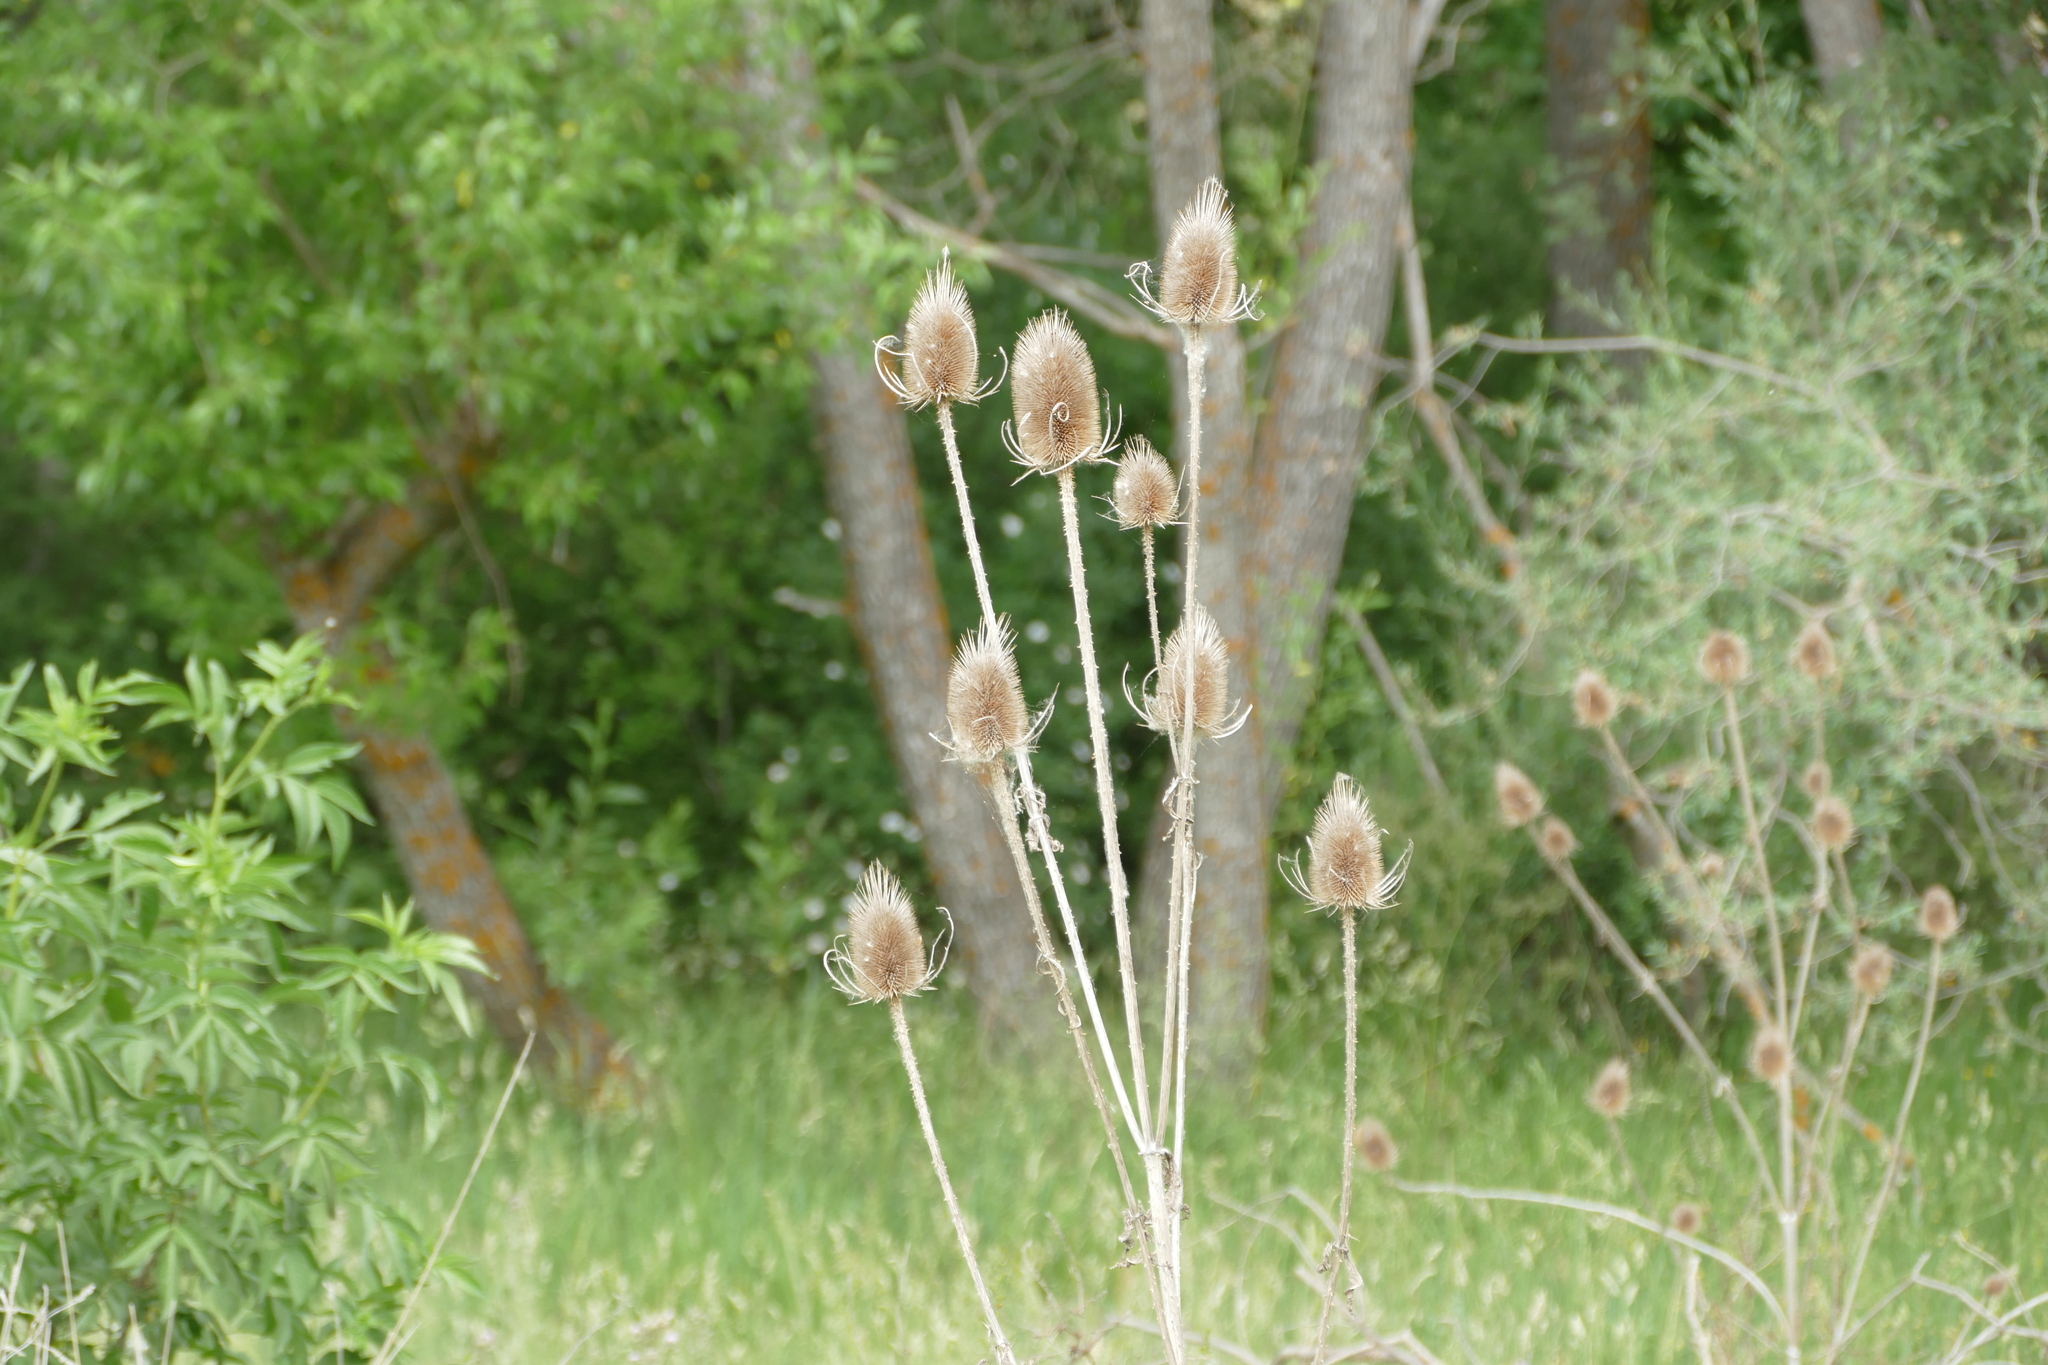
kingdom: Plantae
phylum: Tracheophyta
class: Magnoliopsida
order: Dipsacales
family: Caprifoliaceae
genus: Dipsacus
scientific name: Dipsacus fullonum
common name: Teasel
